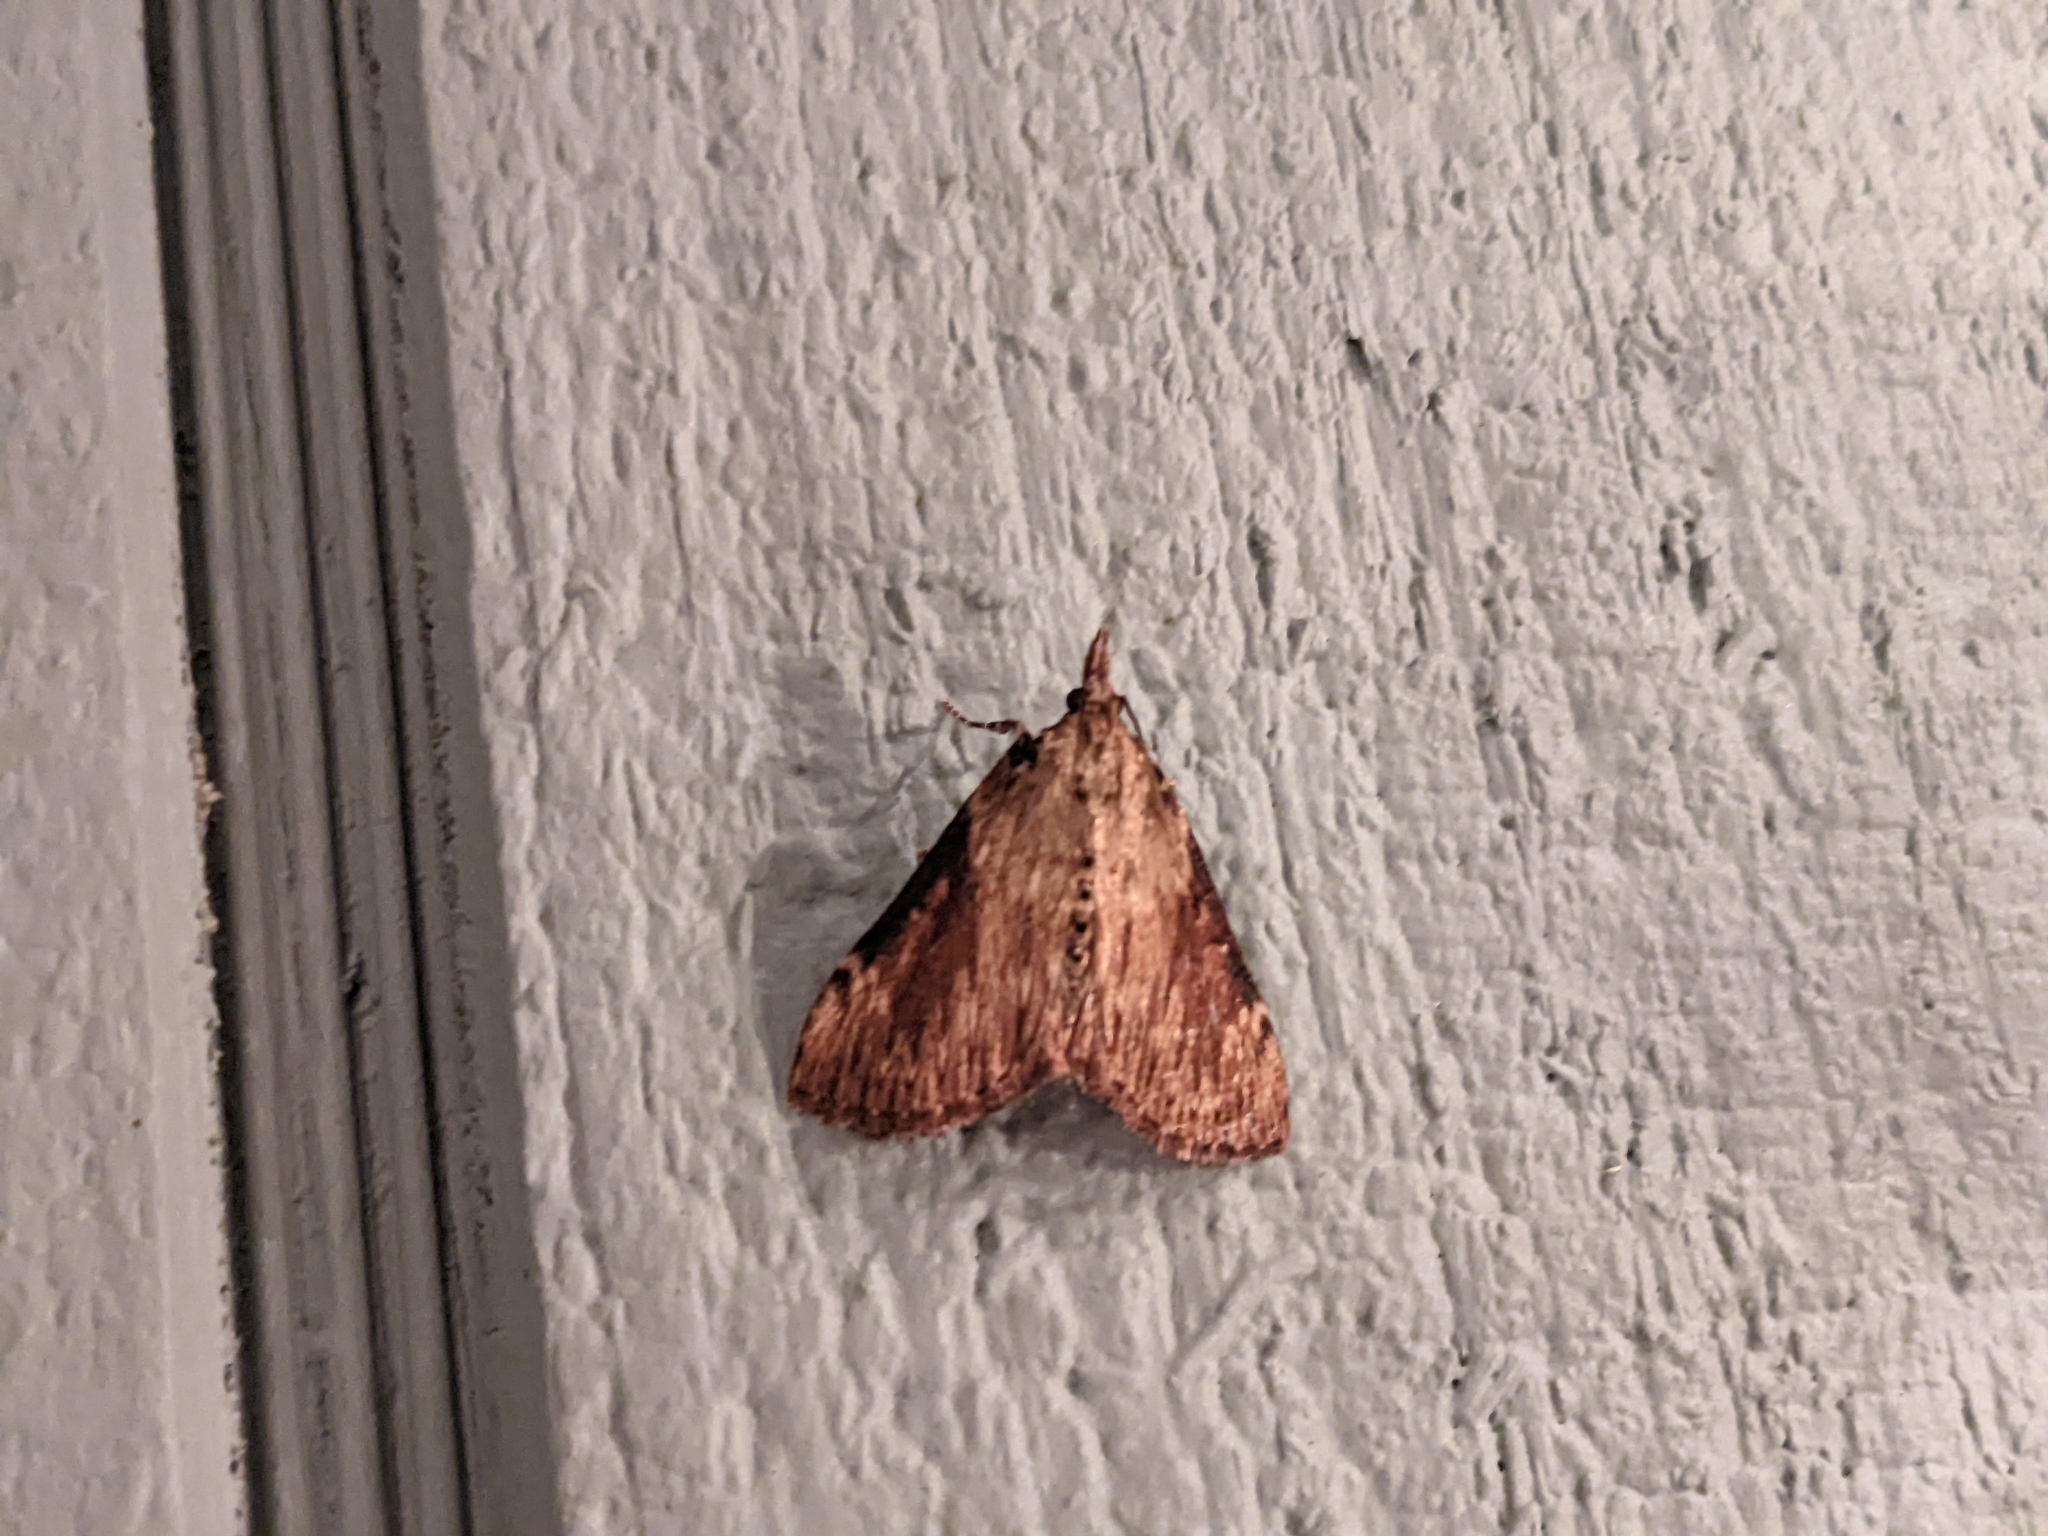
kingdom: Animalia
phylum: Arthropoda
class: Insecta
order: Lepidoptera
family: Pyralidae
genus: Omphalocera
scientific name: Omphalocera cariosa
